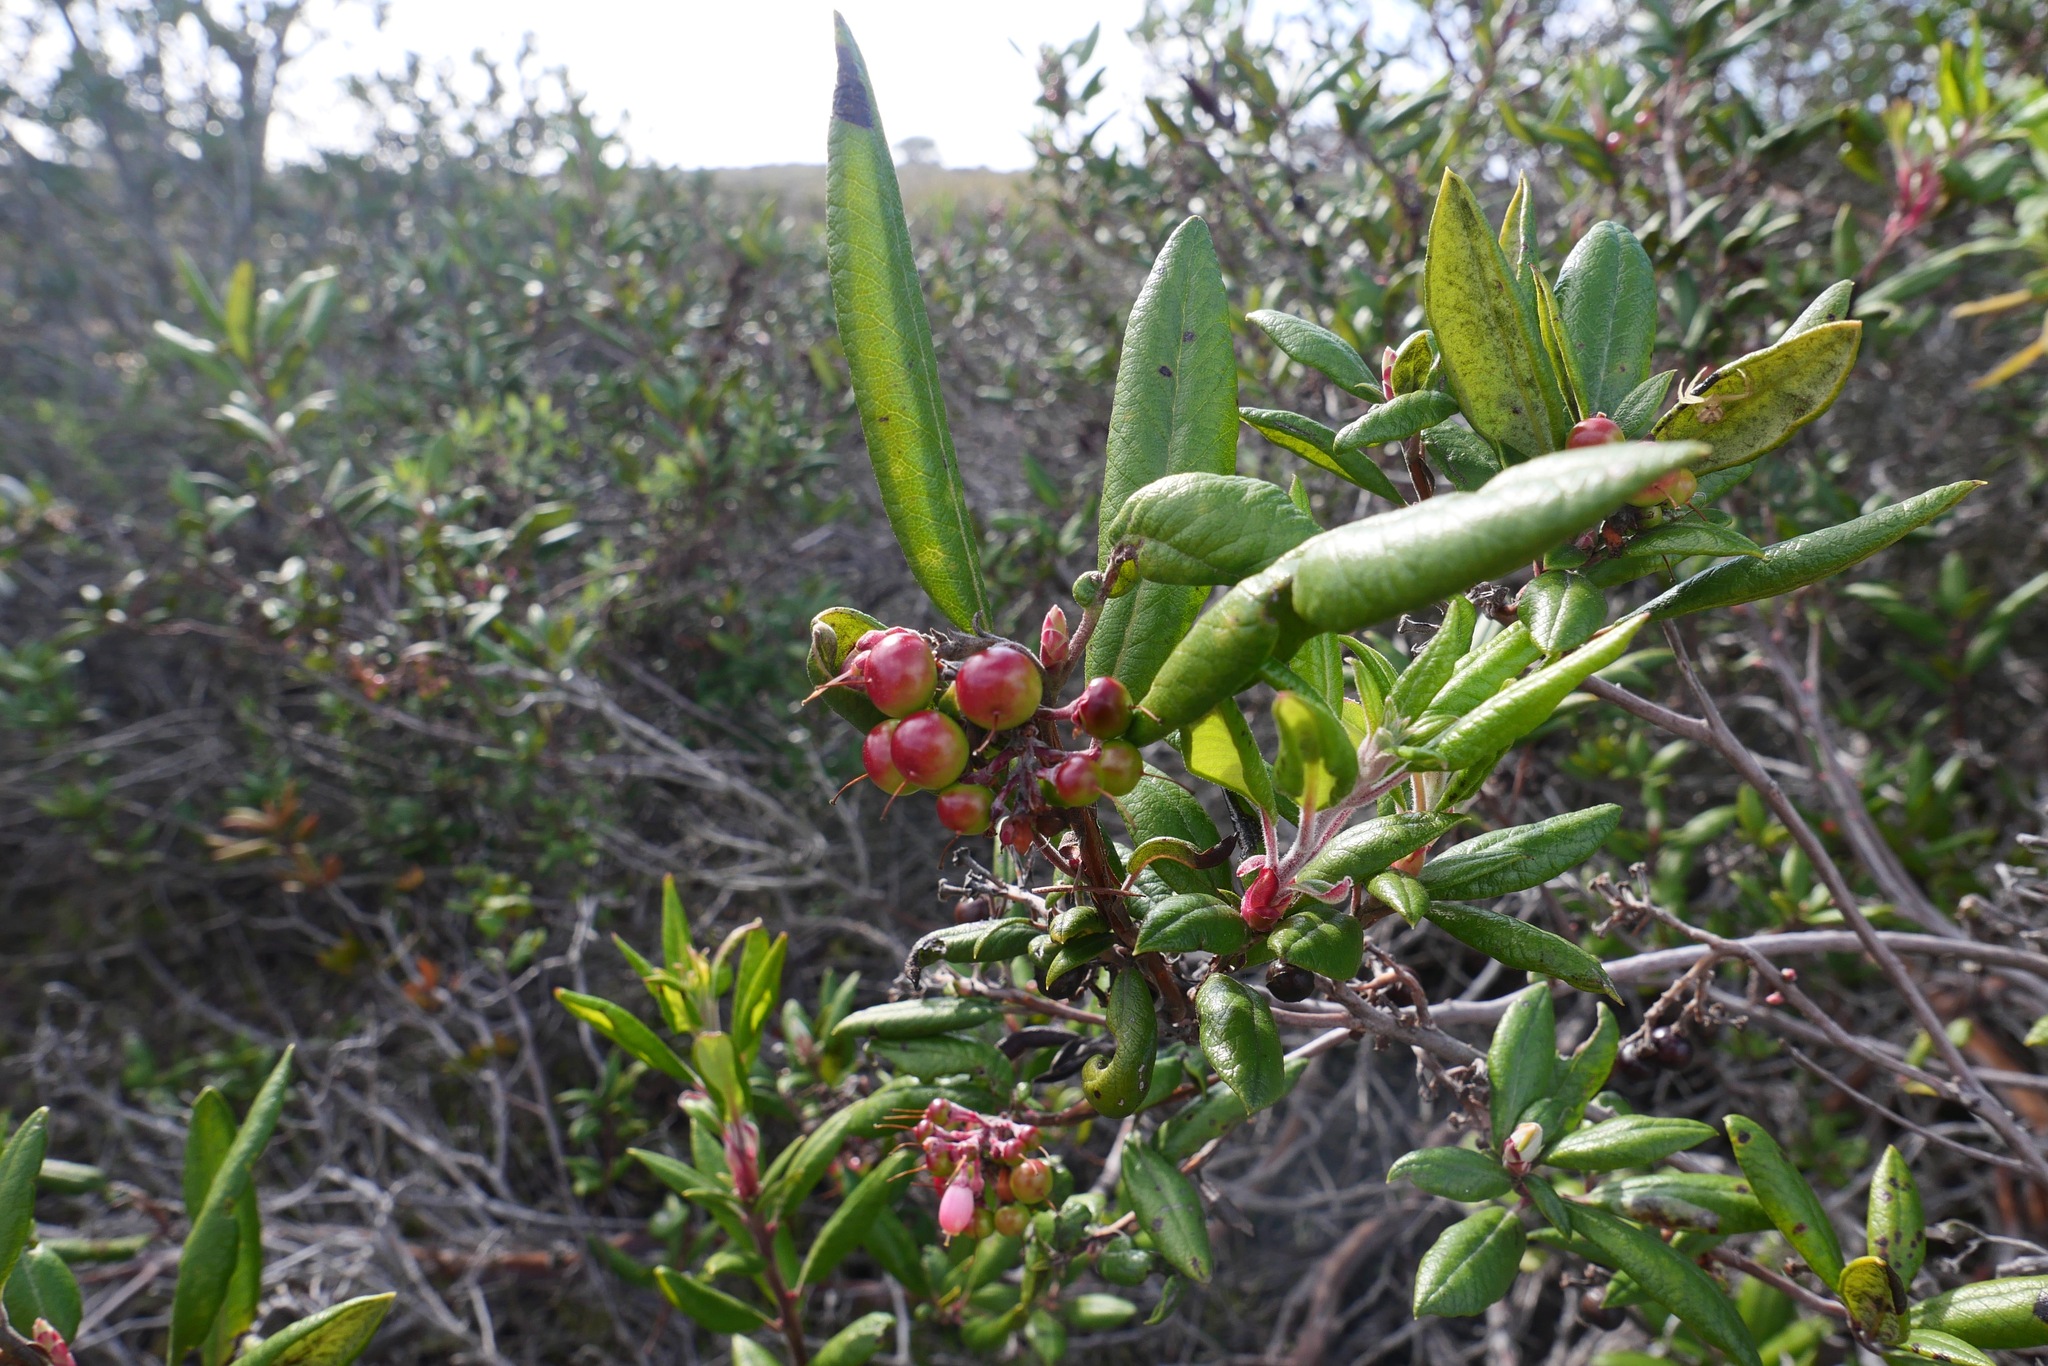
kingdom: Plantae
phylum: Tracheophyta
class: Magnoliopsida
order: Ericales
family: Ericaceae
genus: Arctostaphylos
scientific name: Arctostaphylos bicolor
